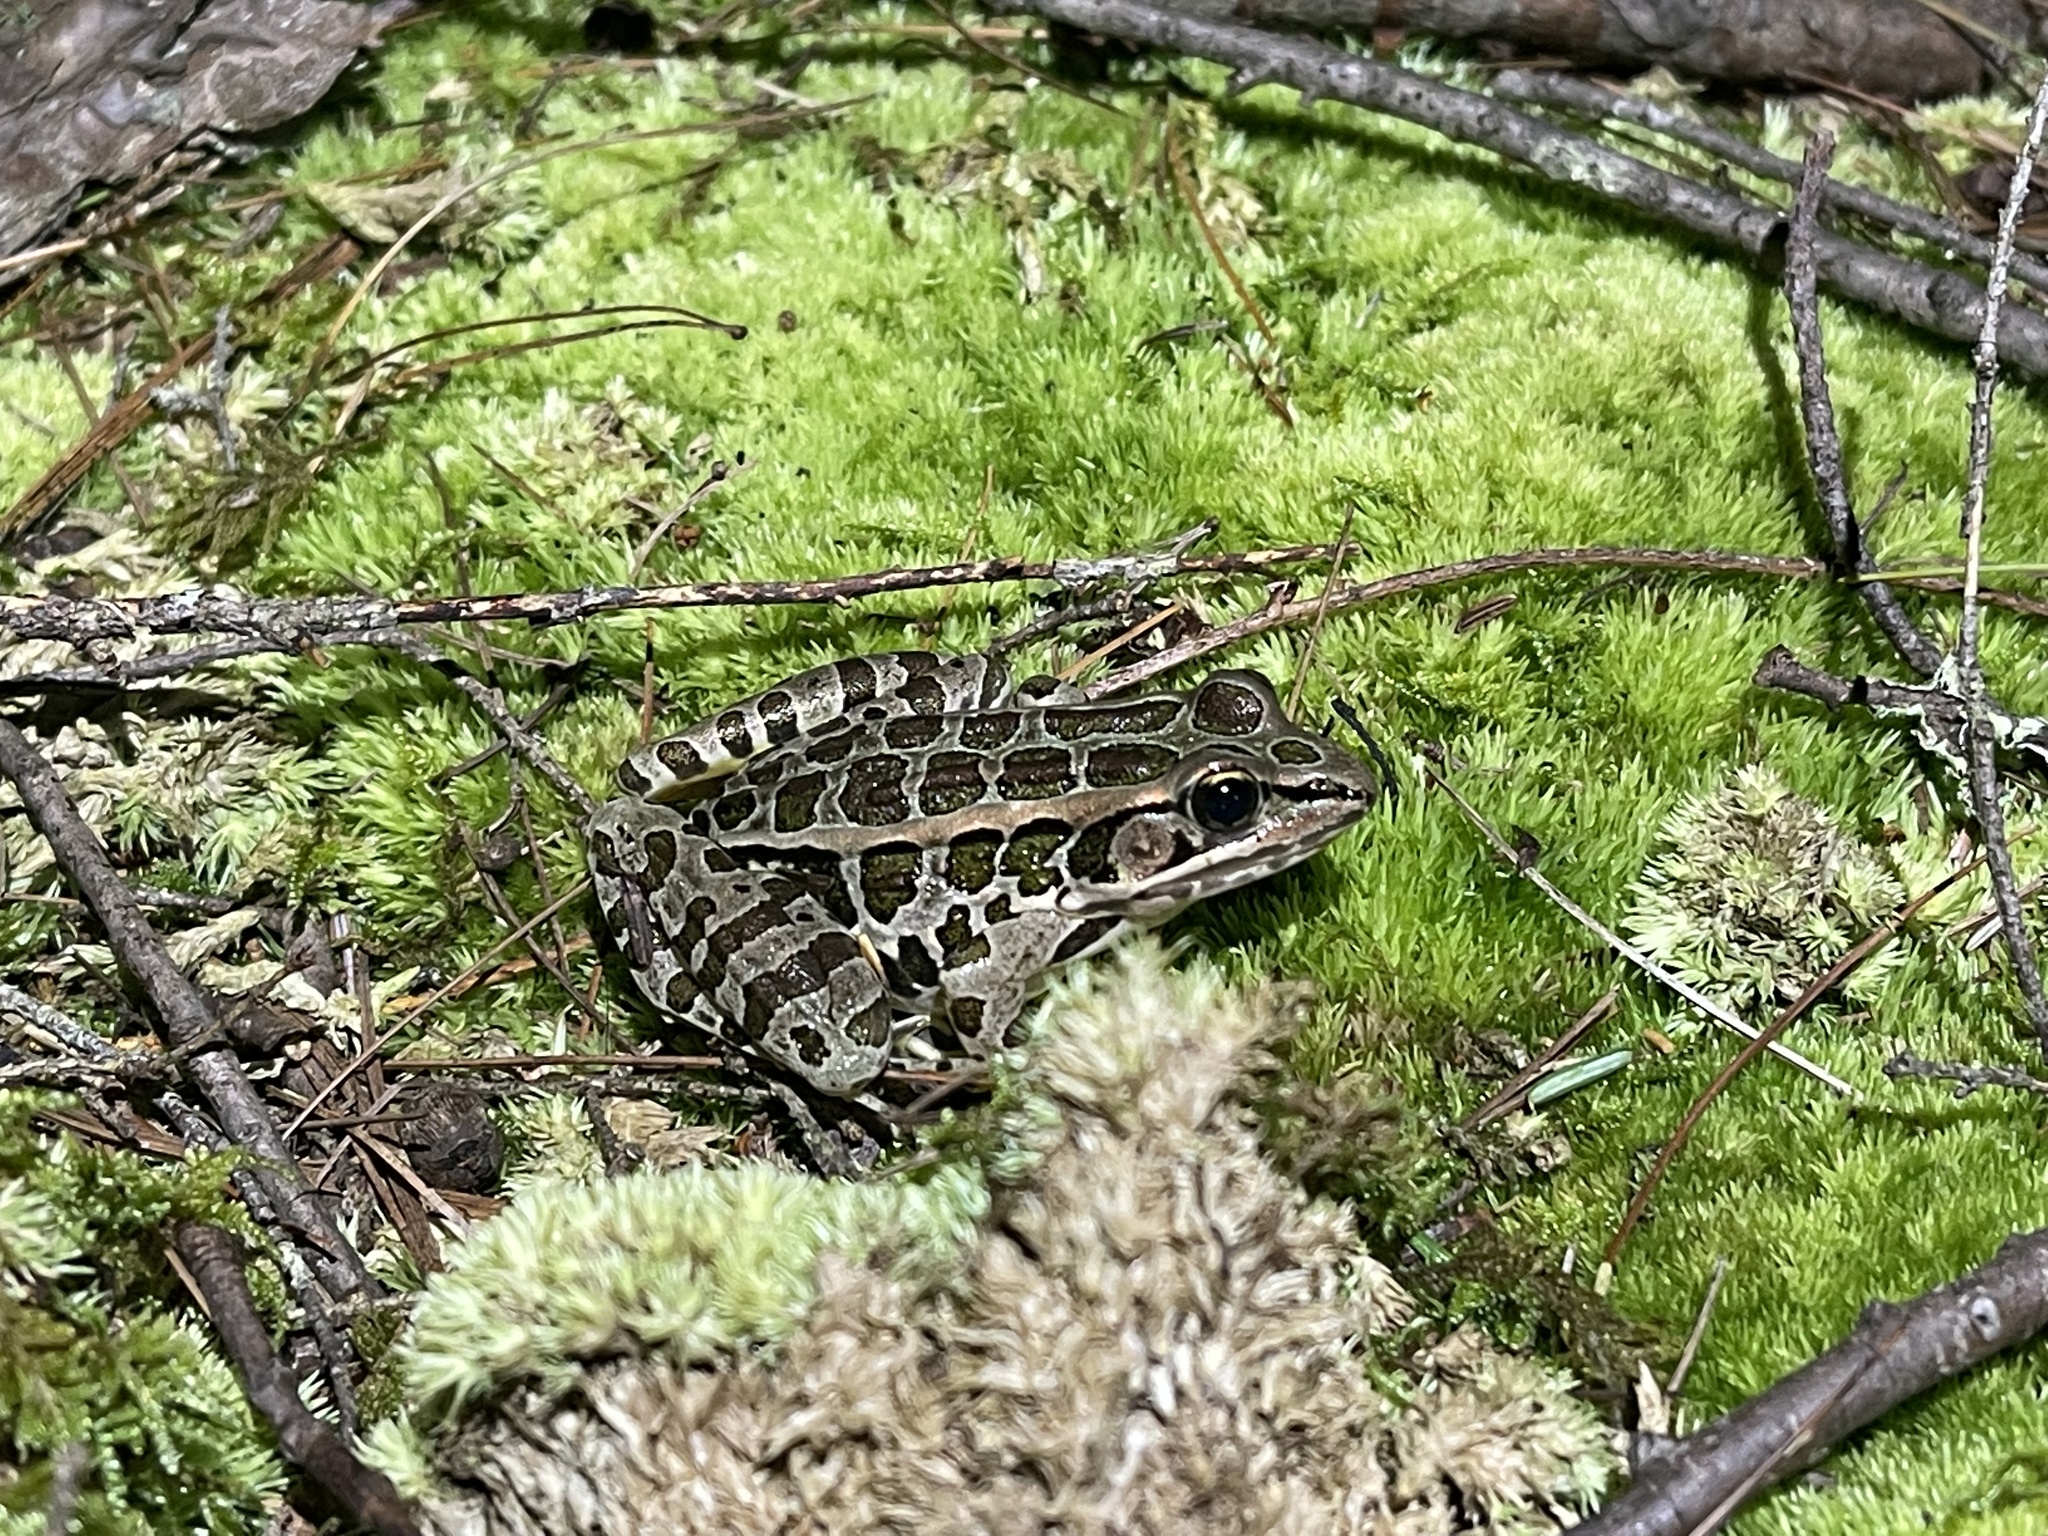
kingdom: Animalia
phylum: Chordata
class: Amphibia
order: Anura
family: Ranidae
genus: Lithobates
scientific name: Lithobates palustris
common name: Pickerel frog
